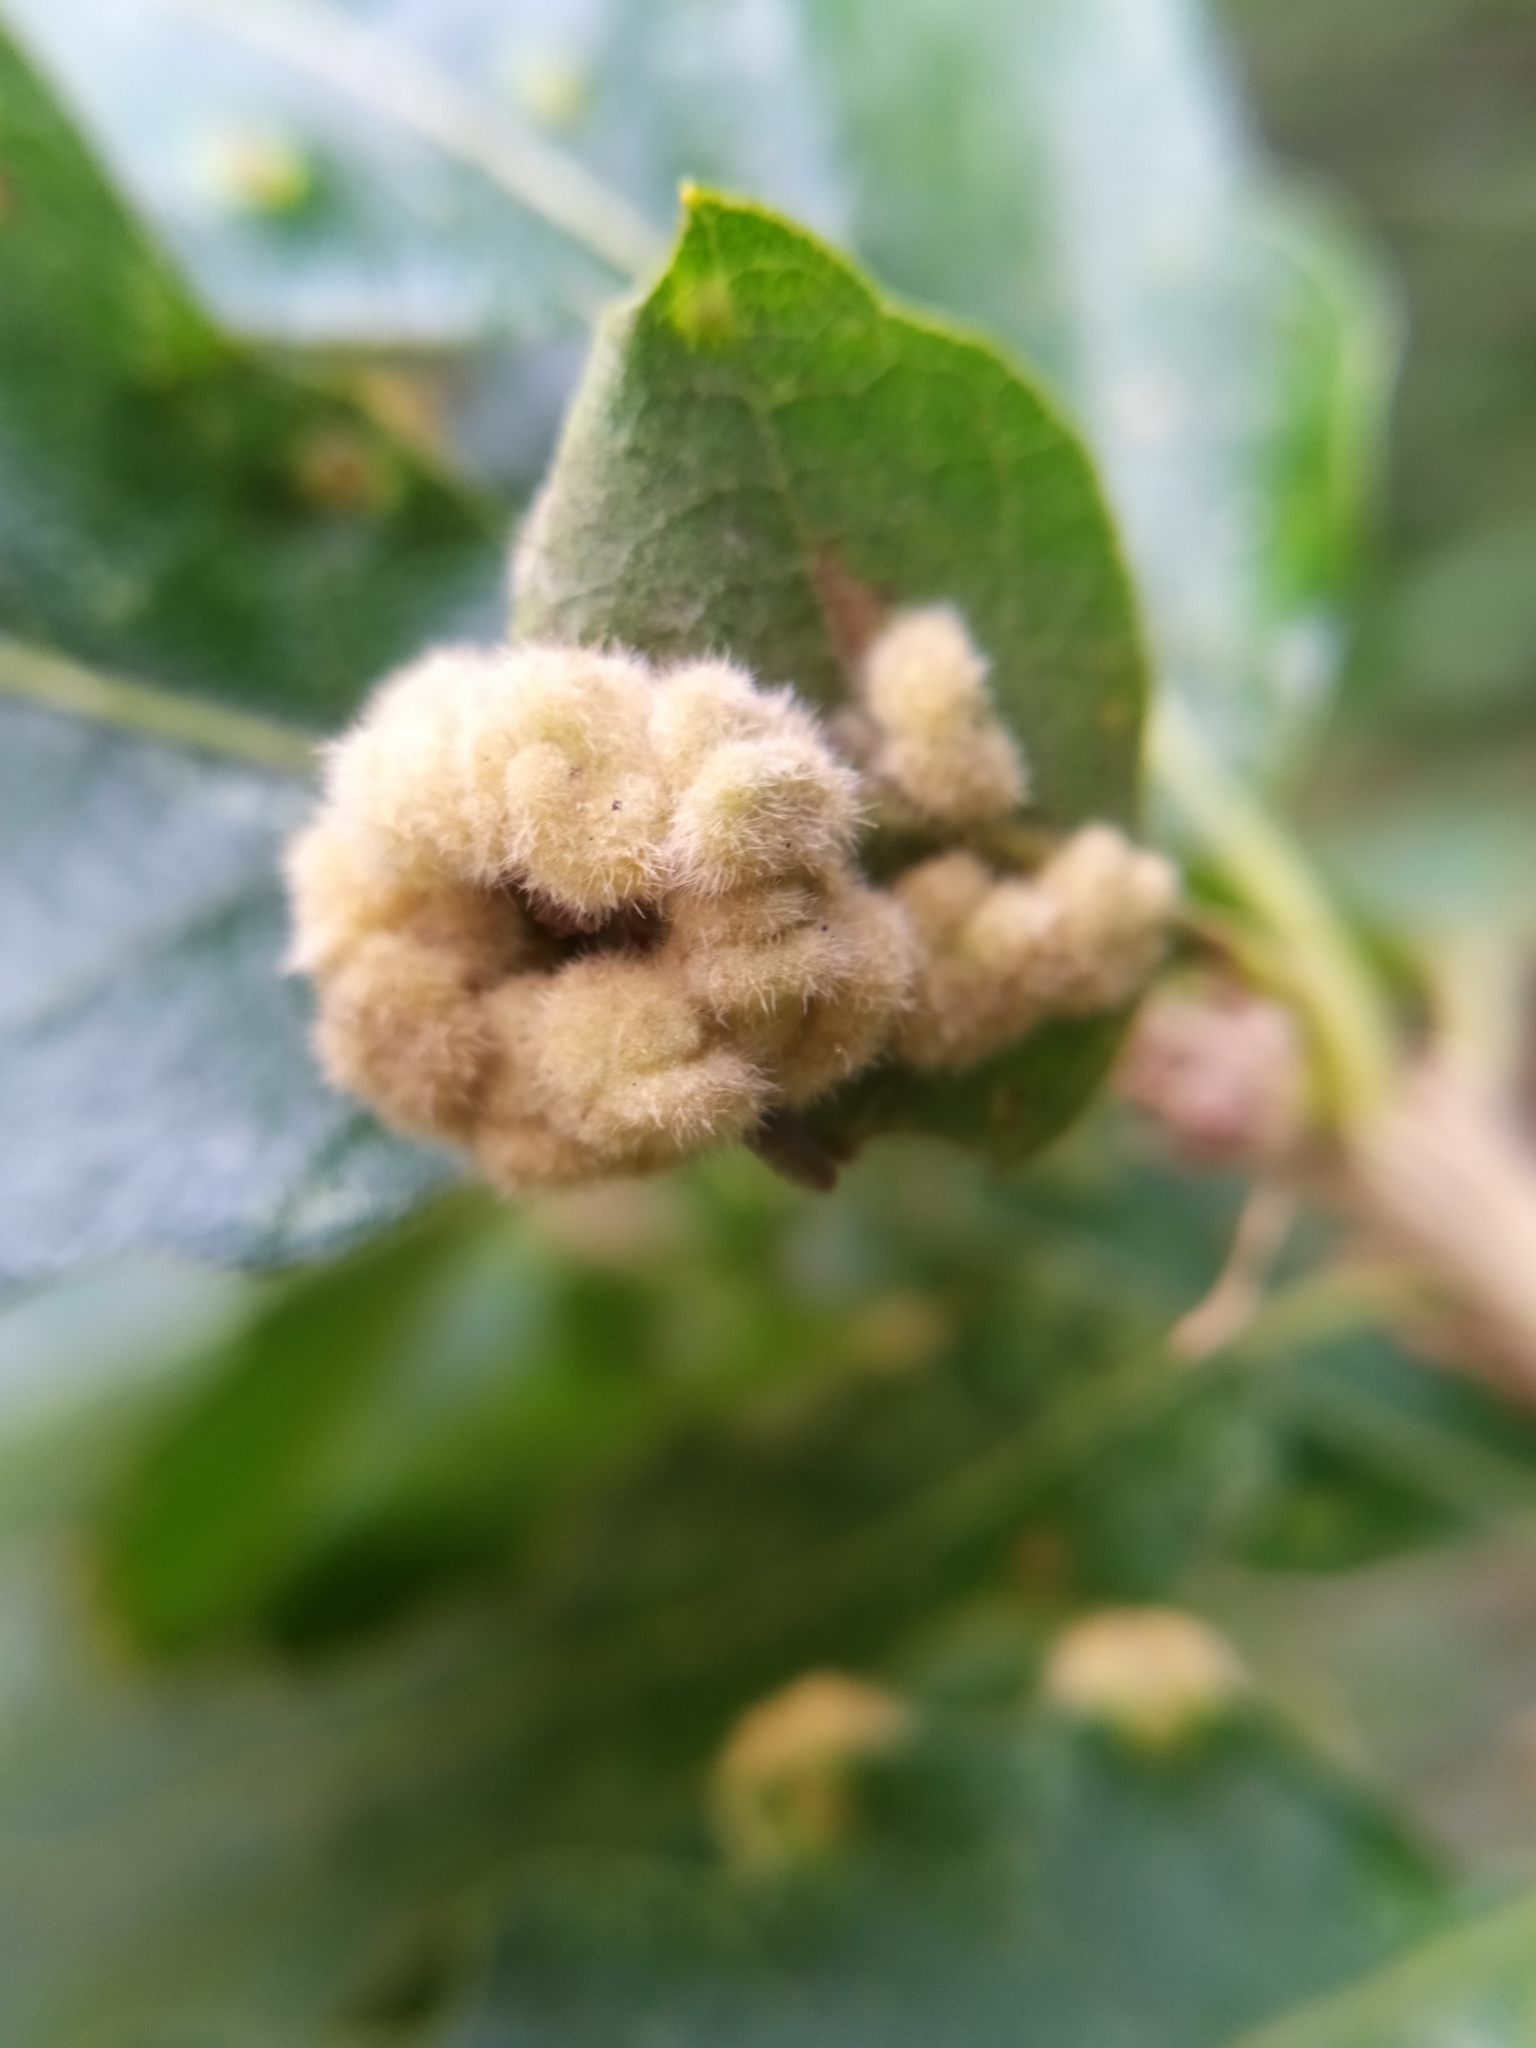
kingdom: Animalia
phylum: Arthropoda
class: Insecta
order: Diptera
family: Cecidomyiidae
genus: Dryomyia
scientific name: Dryomyia circinans
